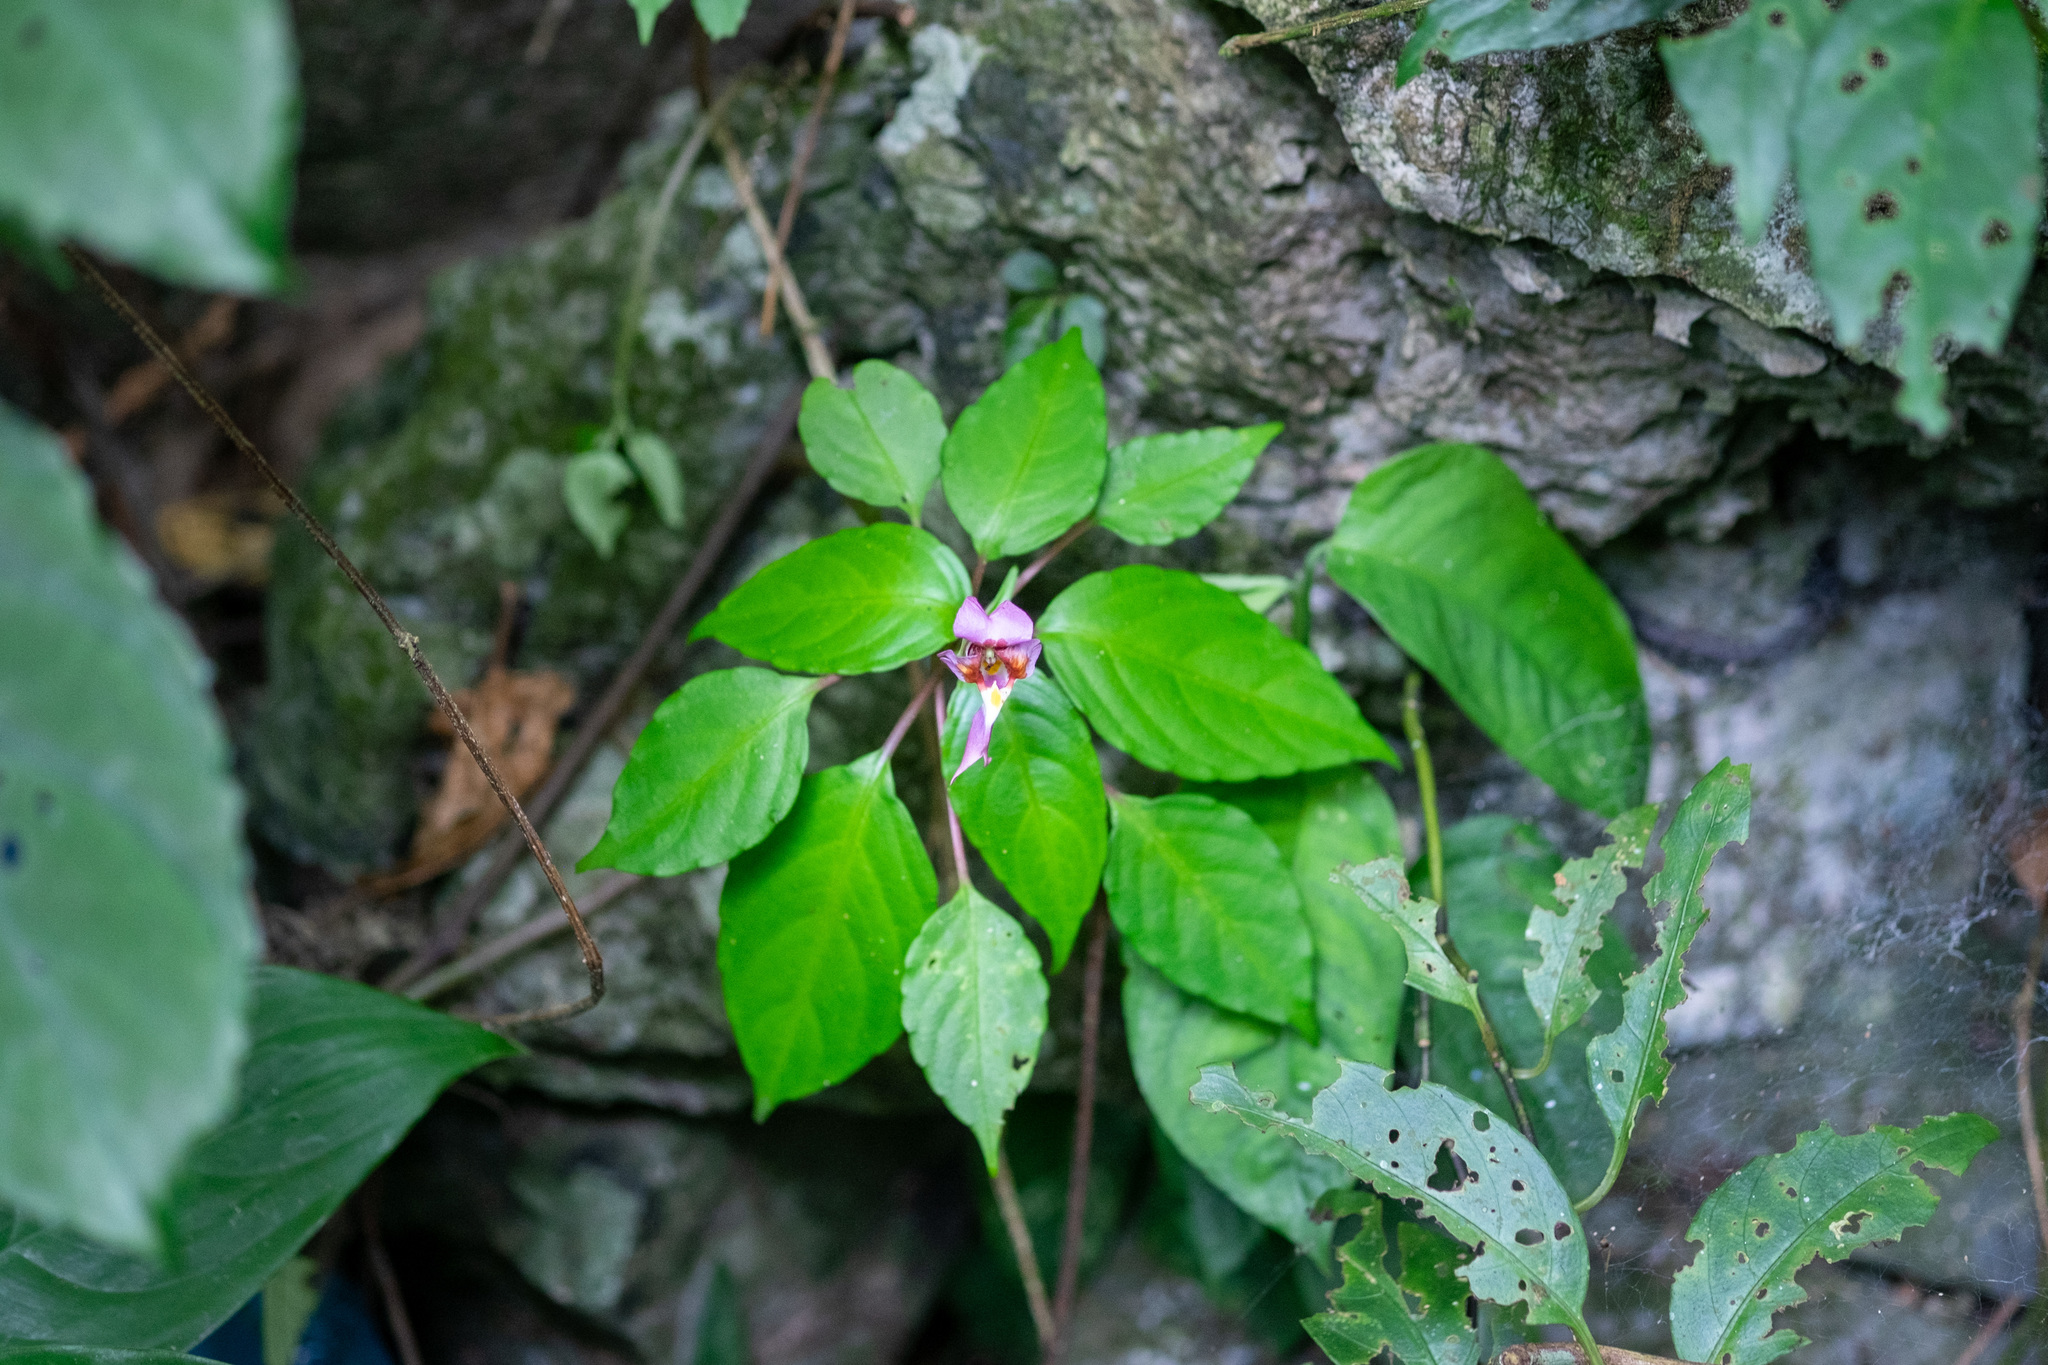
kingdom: Plantae
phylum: Tracheophyta
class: Magnoliopsida
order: Ericales
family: Balsaminaceae
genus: Impatiens
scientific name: Impatiens bonii
